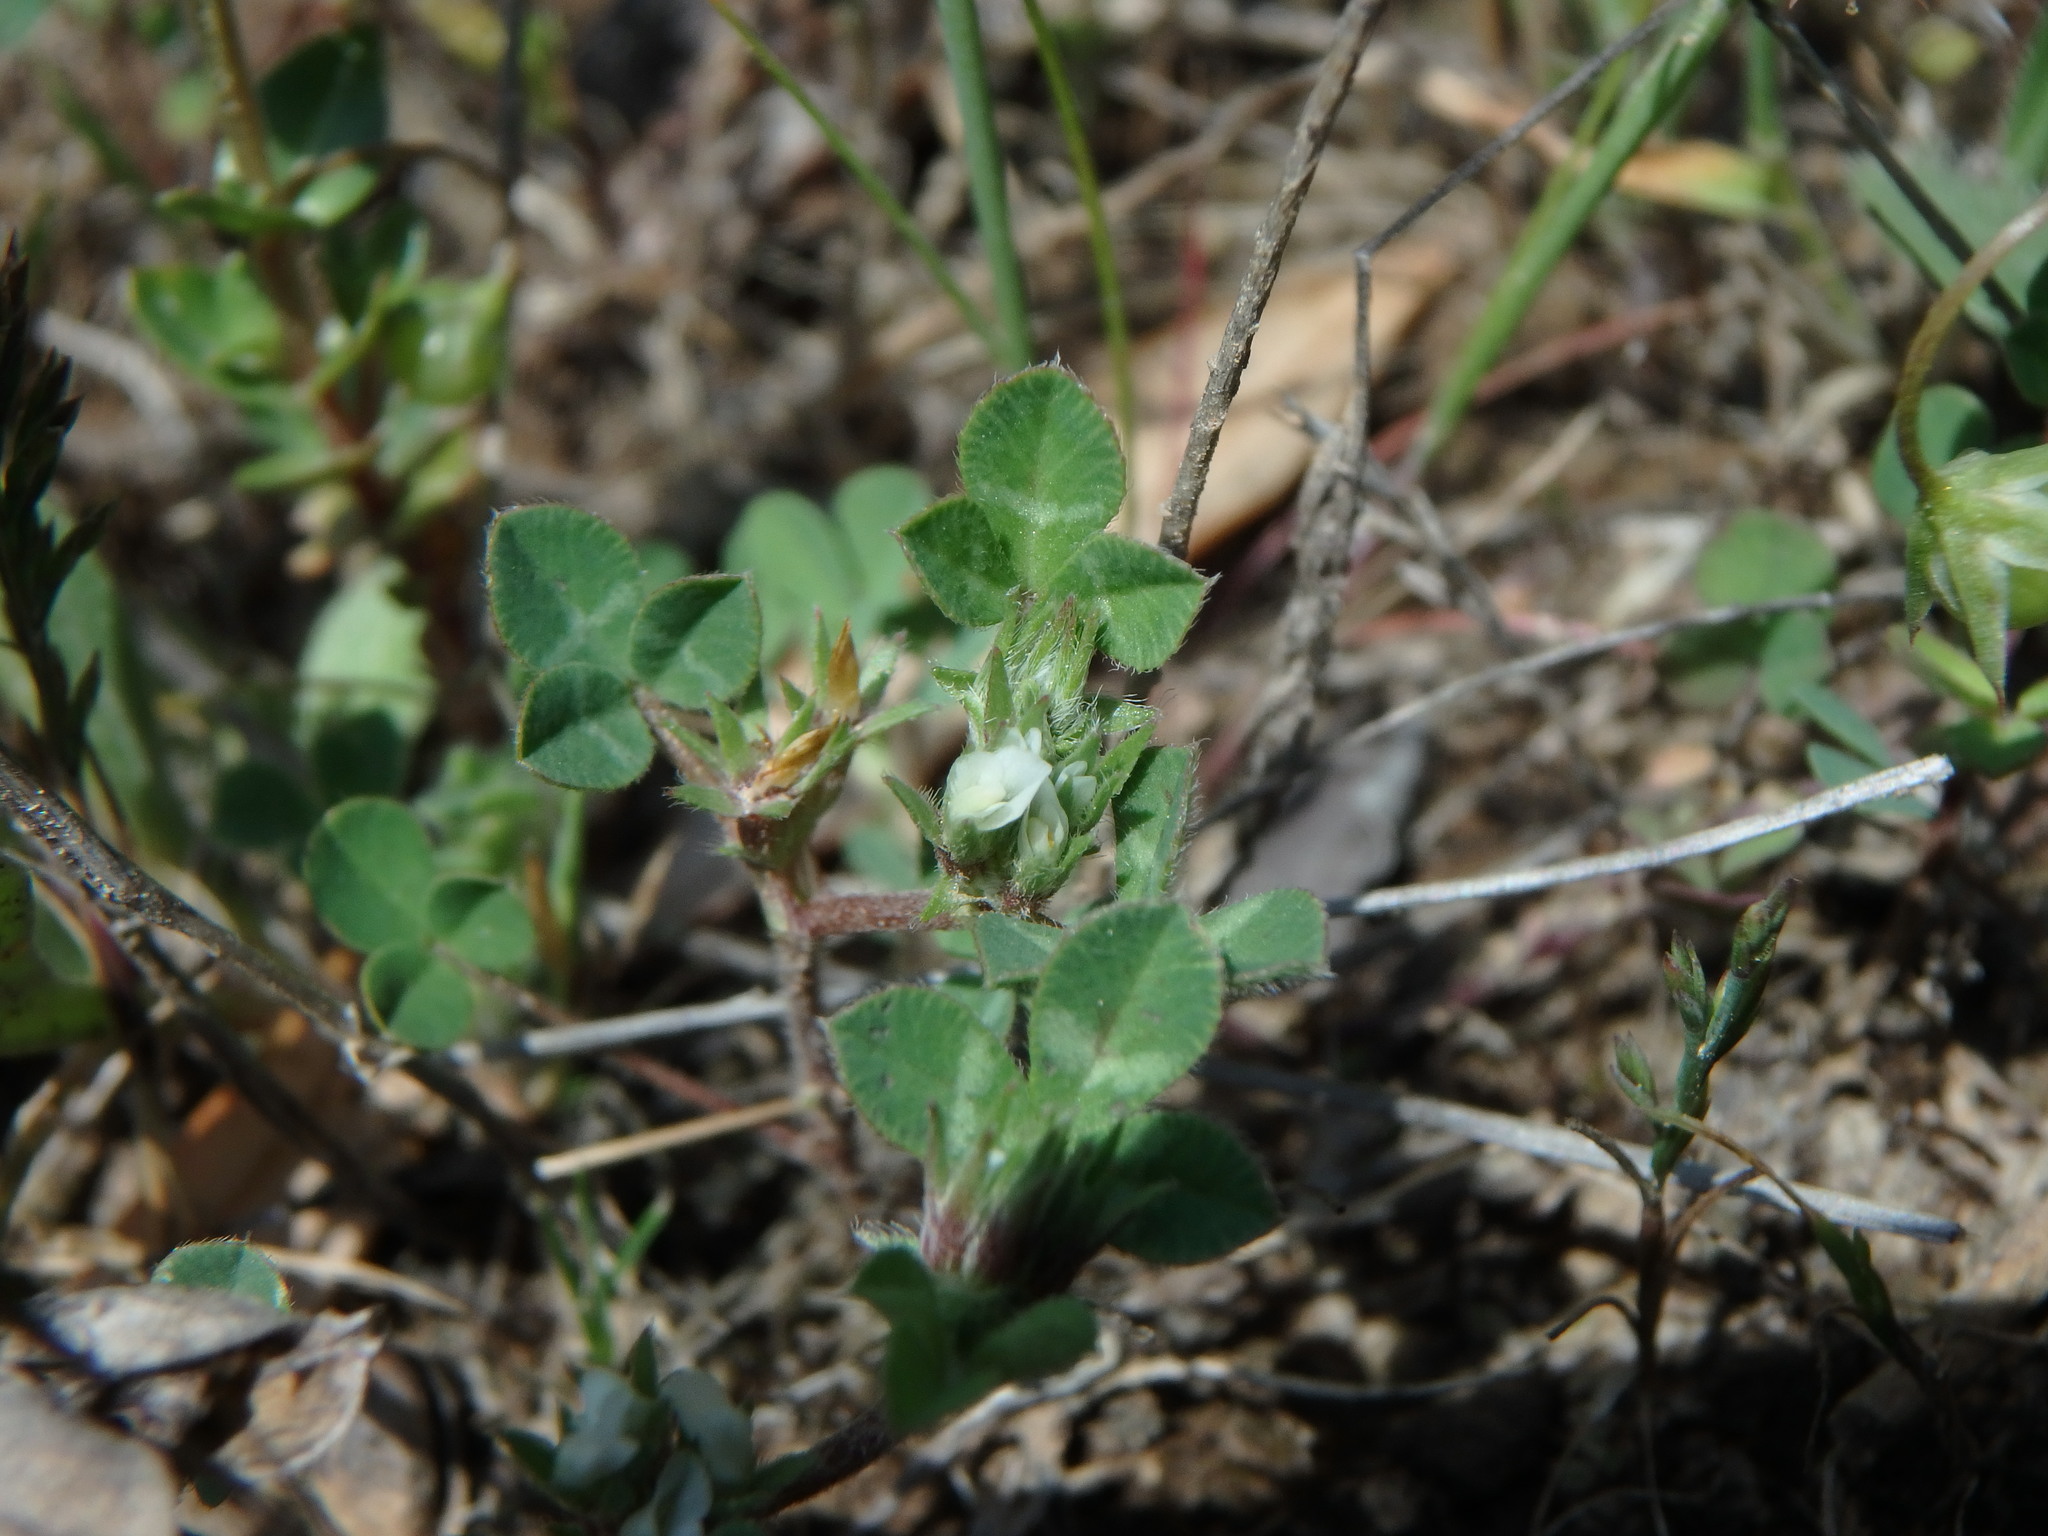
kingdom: Plantae
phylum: Tracheophyta
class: Magnoliopsida
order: Fabales
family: Fabaceae
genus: Trifolium
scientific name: Trifolium scabrum
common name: Rough clover
